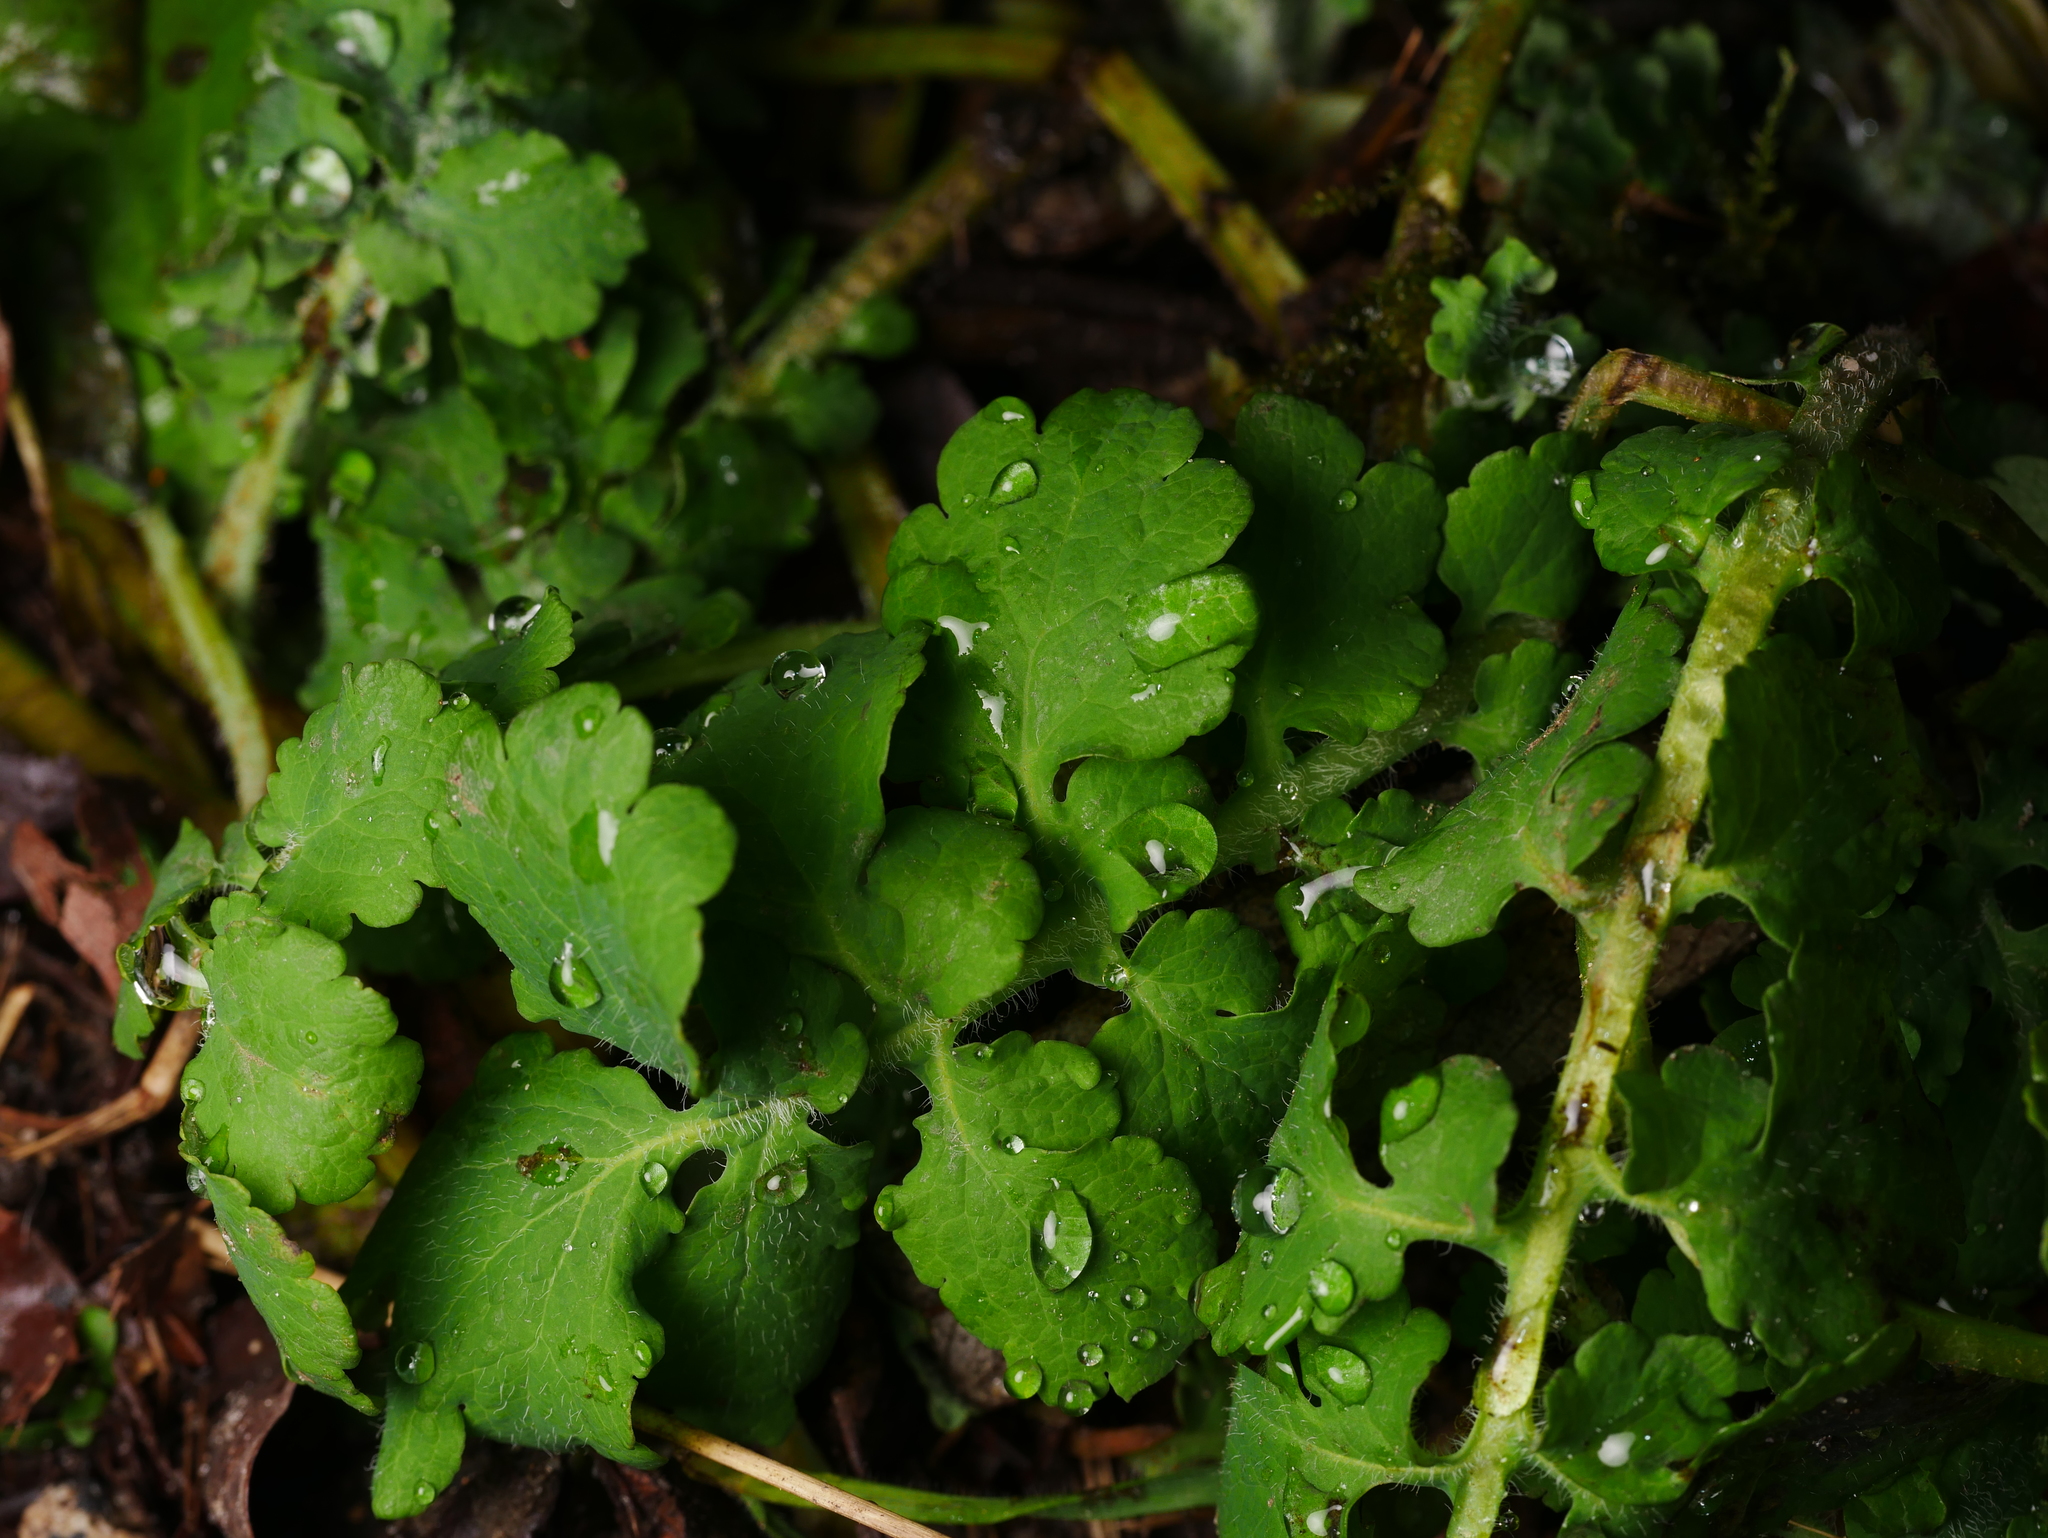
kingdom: Plantae
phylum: Tracheophyta
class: Magnoliopsida
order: Ranunculales
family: Papaveraceae
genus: Chelidonium
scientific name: Chelidonium majus
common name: Greater celandine
